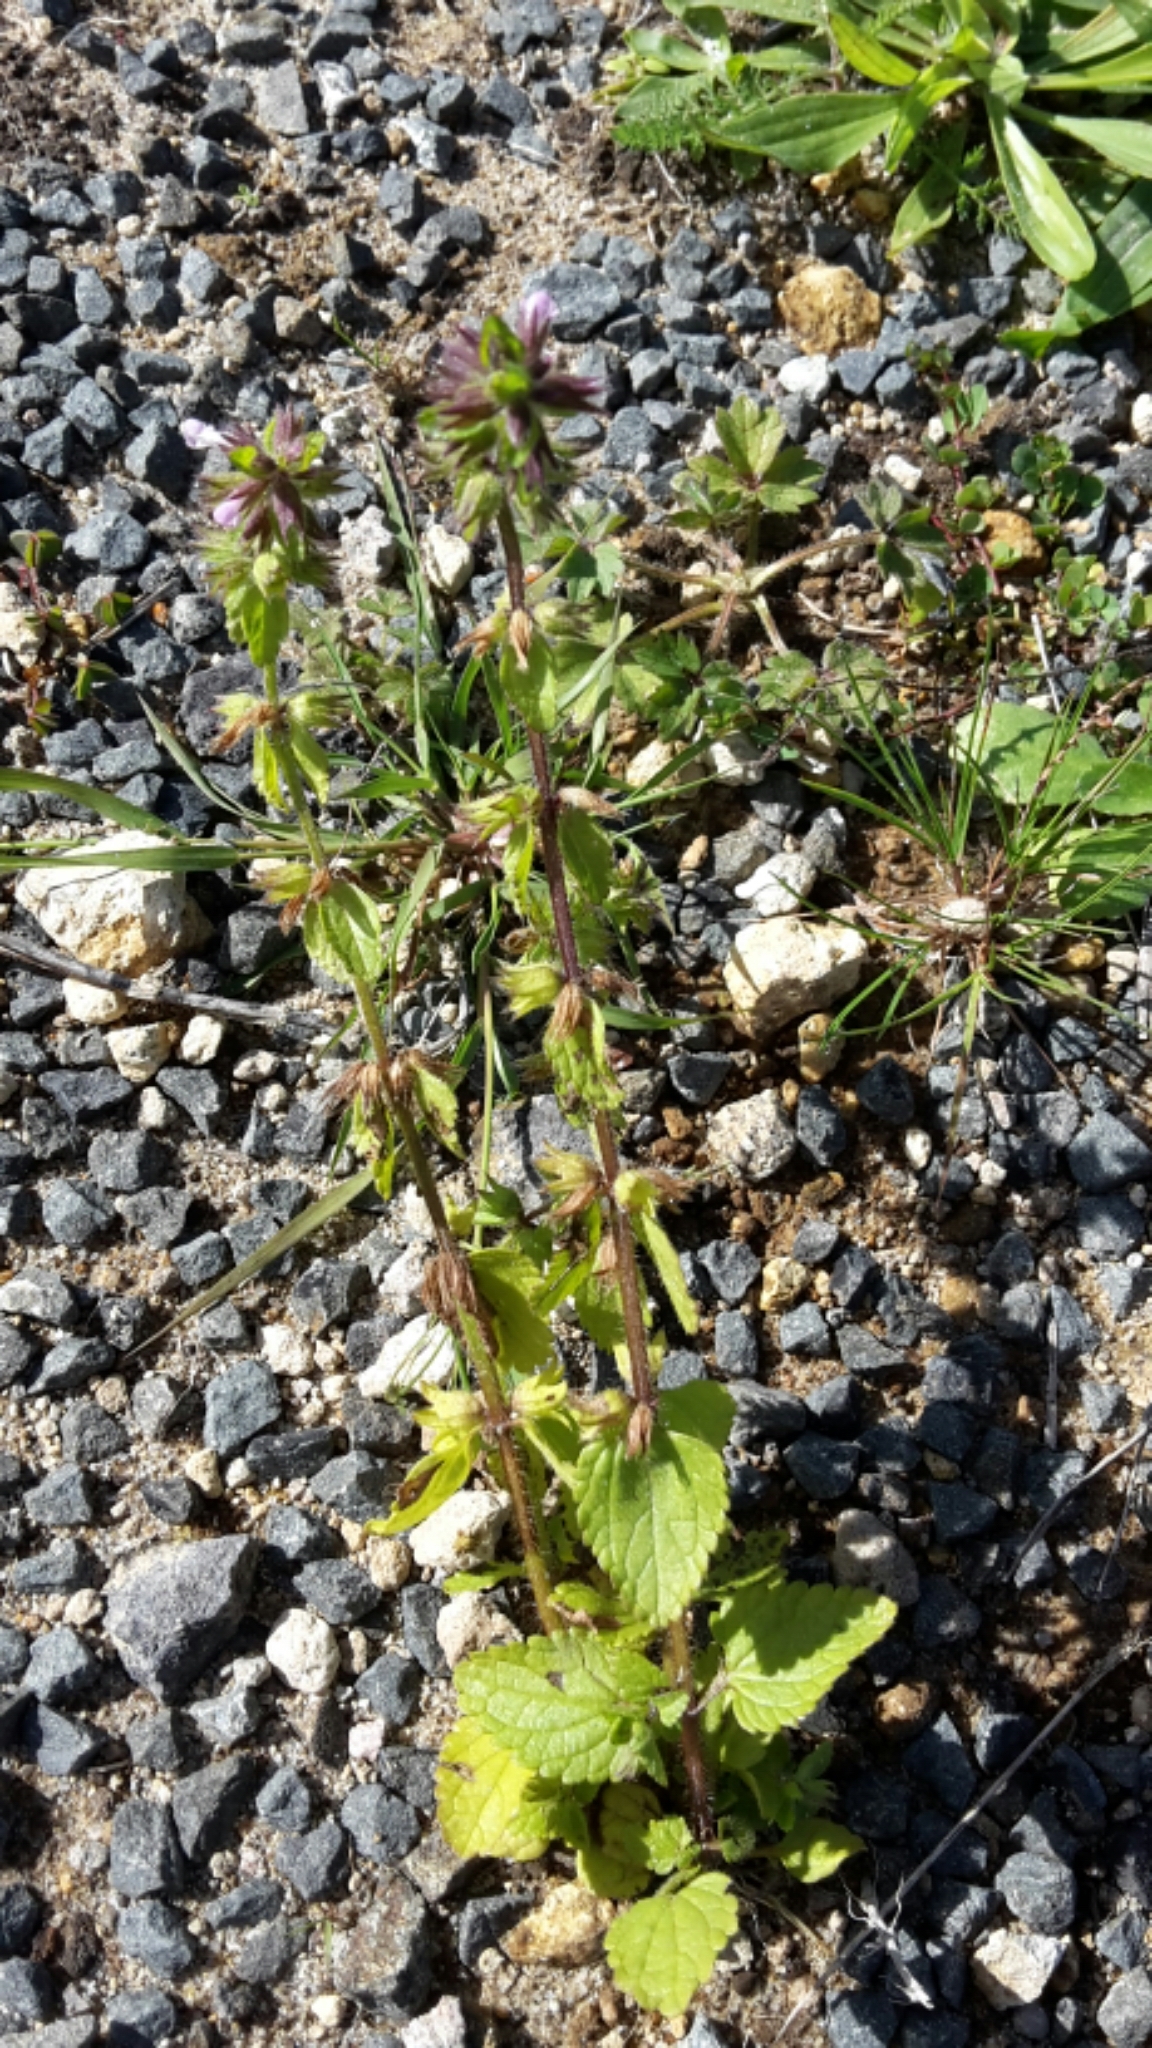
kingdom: Plantae
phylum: Tracheophyta
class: Magnoliopsida
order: Lamiales
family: Lamiaceae
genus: Stachys
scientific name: Stachys arvensis
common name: Field woundwort
